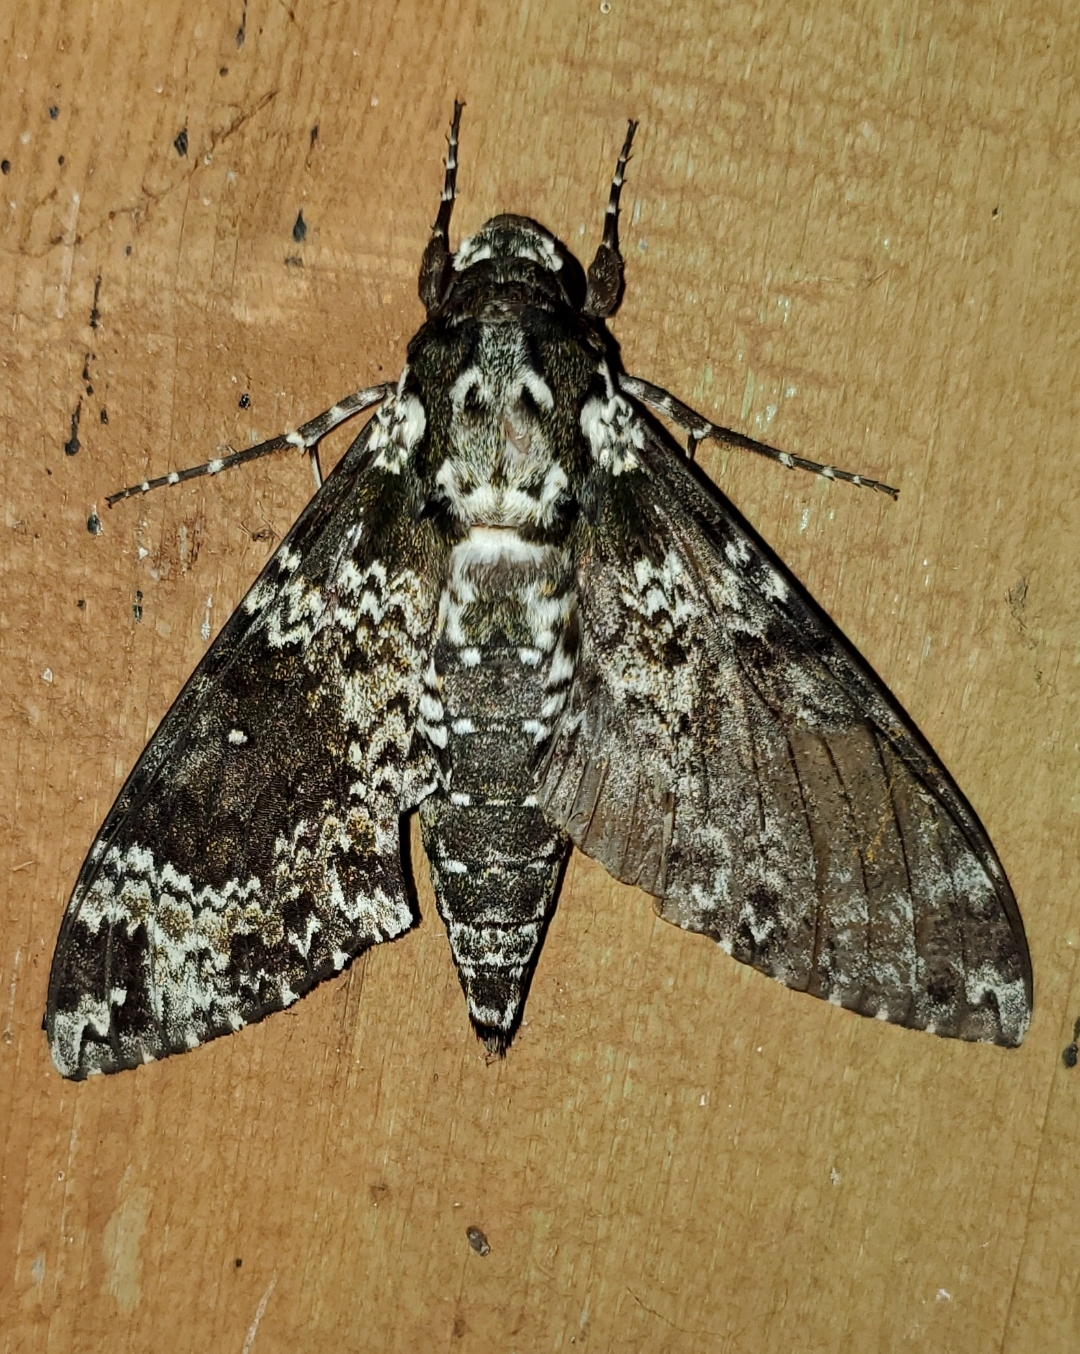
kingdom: Animalia
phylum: Arthropoda
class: Insecta
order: Lepidoptera
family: Sphingidae
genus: Manduca
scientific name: Manduca rustica
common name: Rustic sphinx
